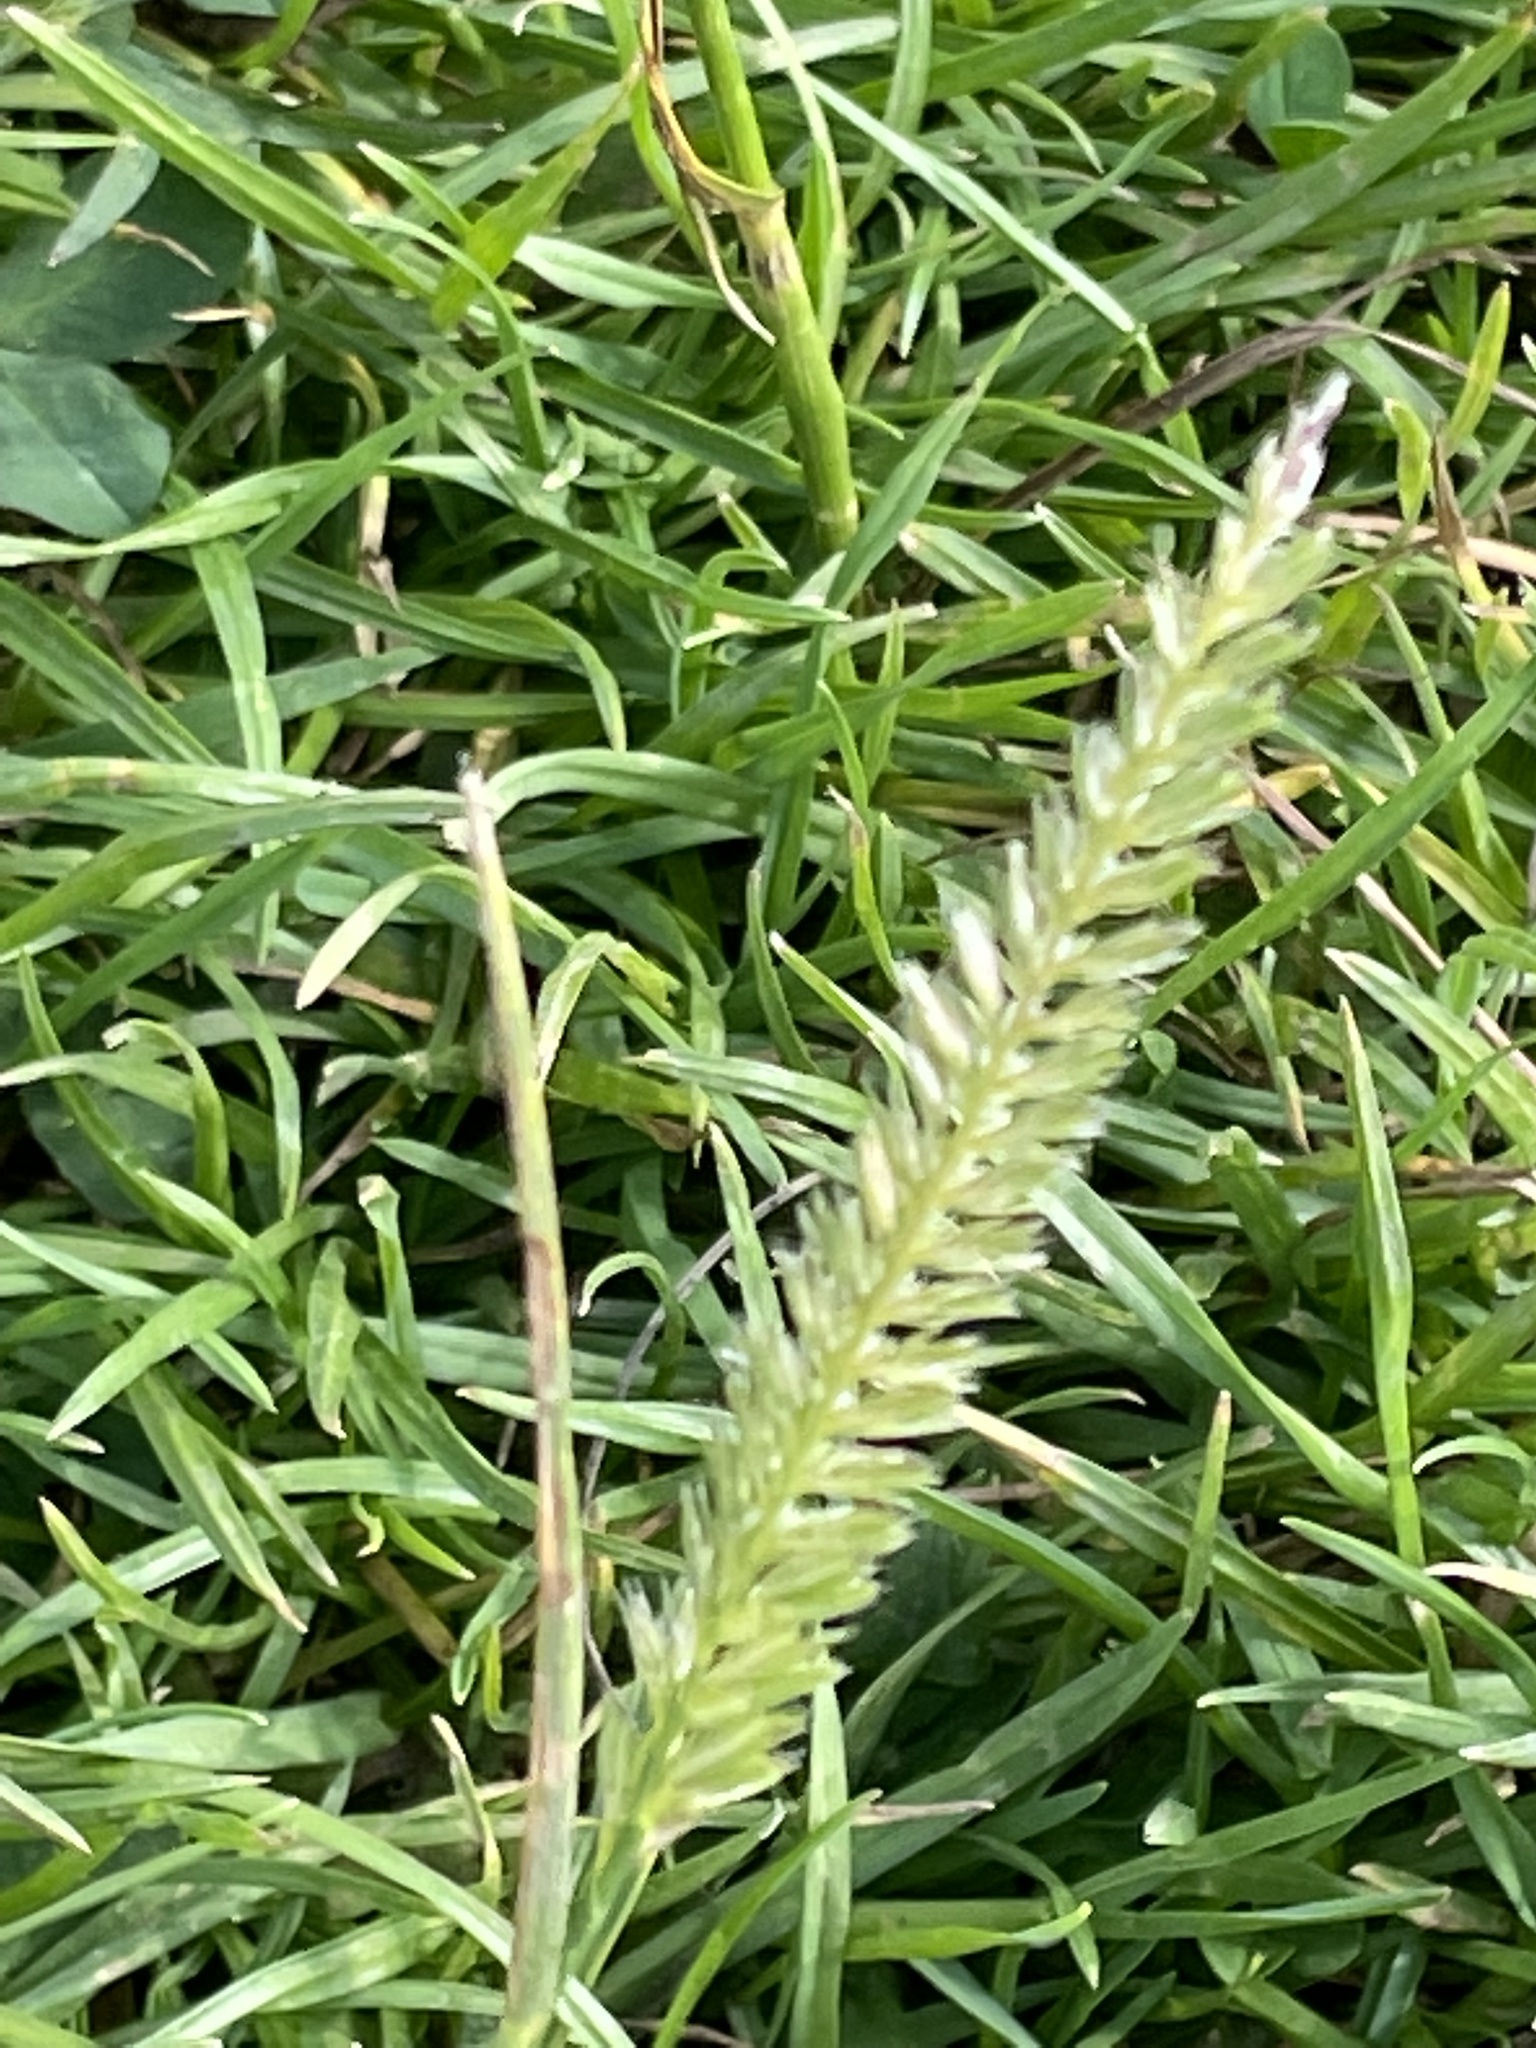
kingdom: Plantae
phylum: Tracheophyta
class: Liliopsida
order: Poales
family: Poaceae
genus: Cynosurus
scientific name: Cynosurus cristatus
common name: Crested dog's-tail
